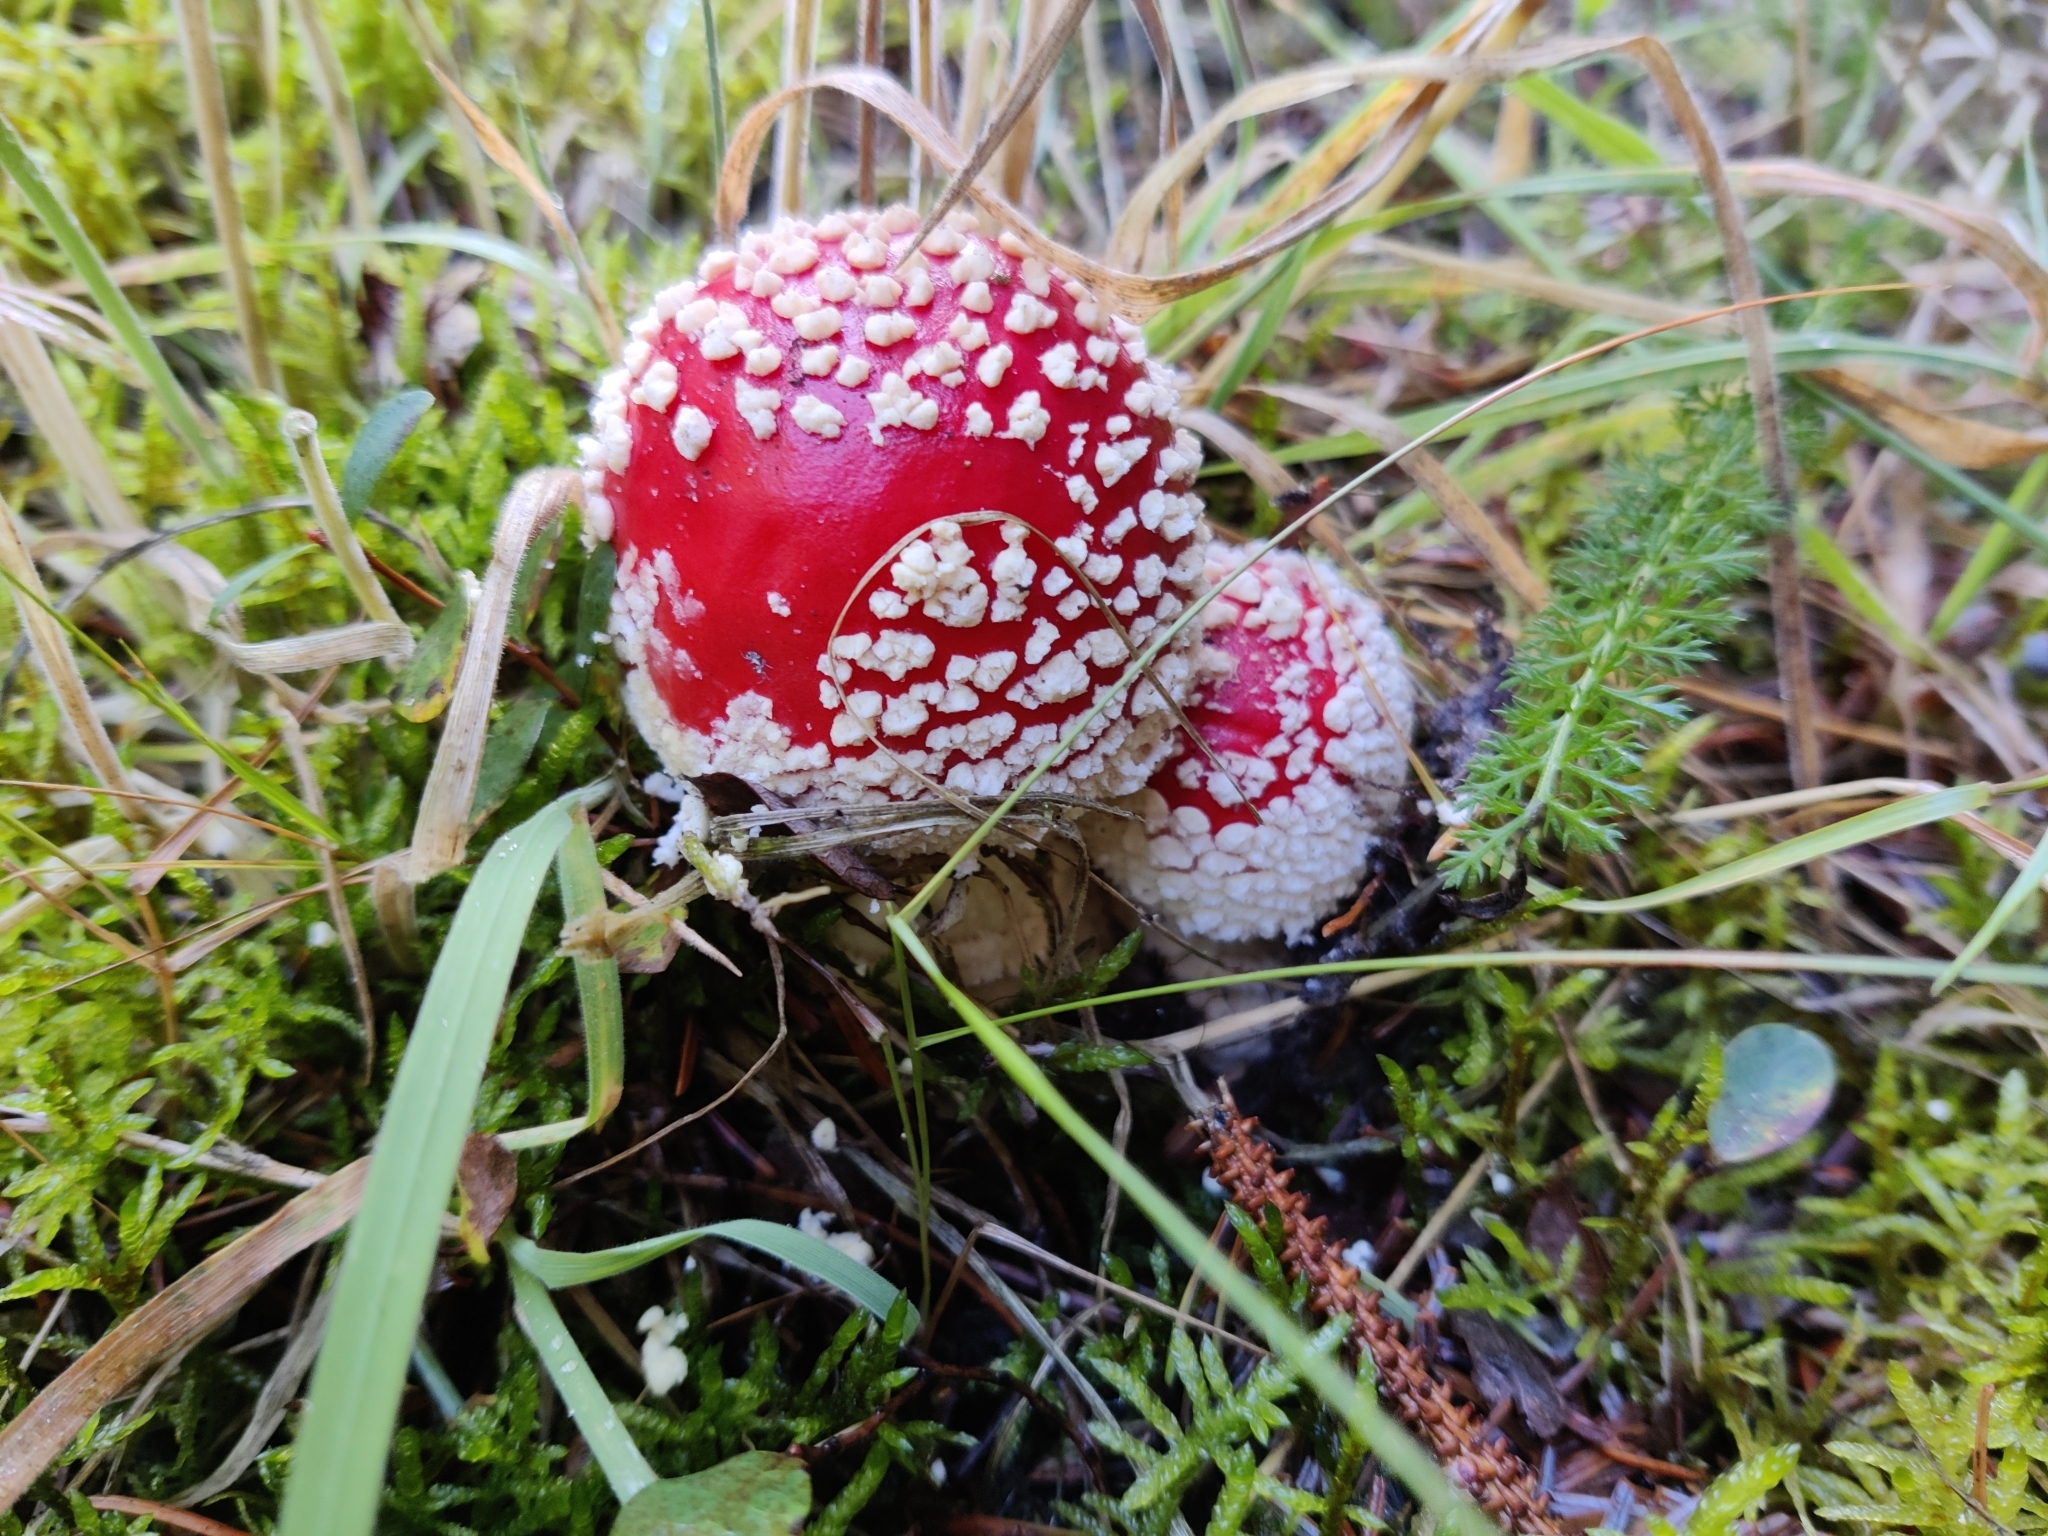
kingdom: Fungi
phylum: Basidiomycota
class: Agaricomycetes
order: Agaricales
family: Amanitaceae
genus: Amanita
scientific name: Amanita muscaria
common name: Fly agaric
